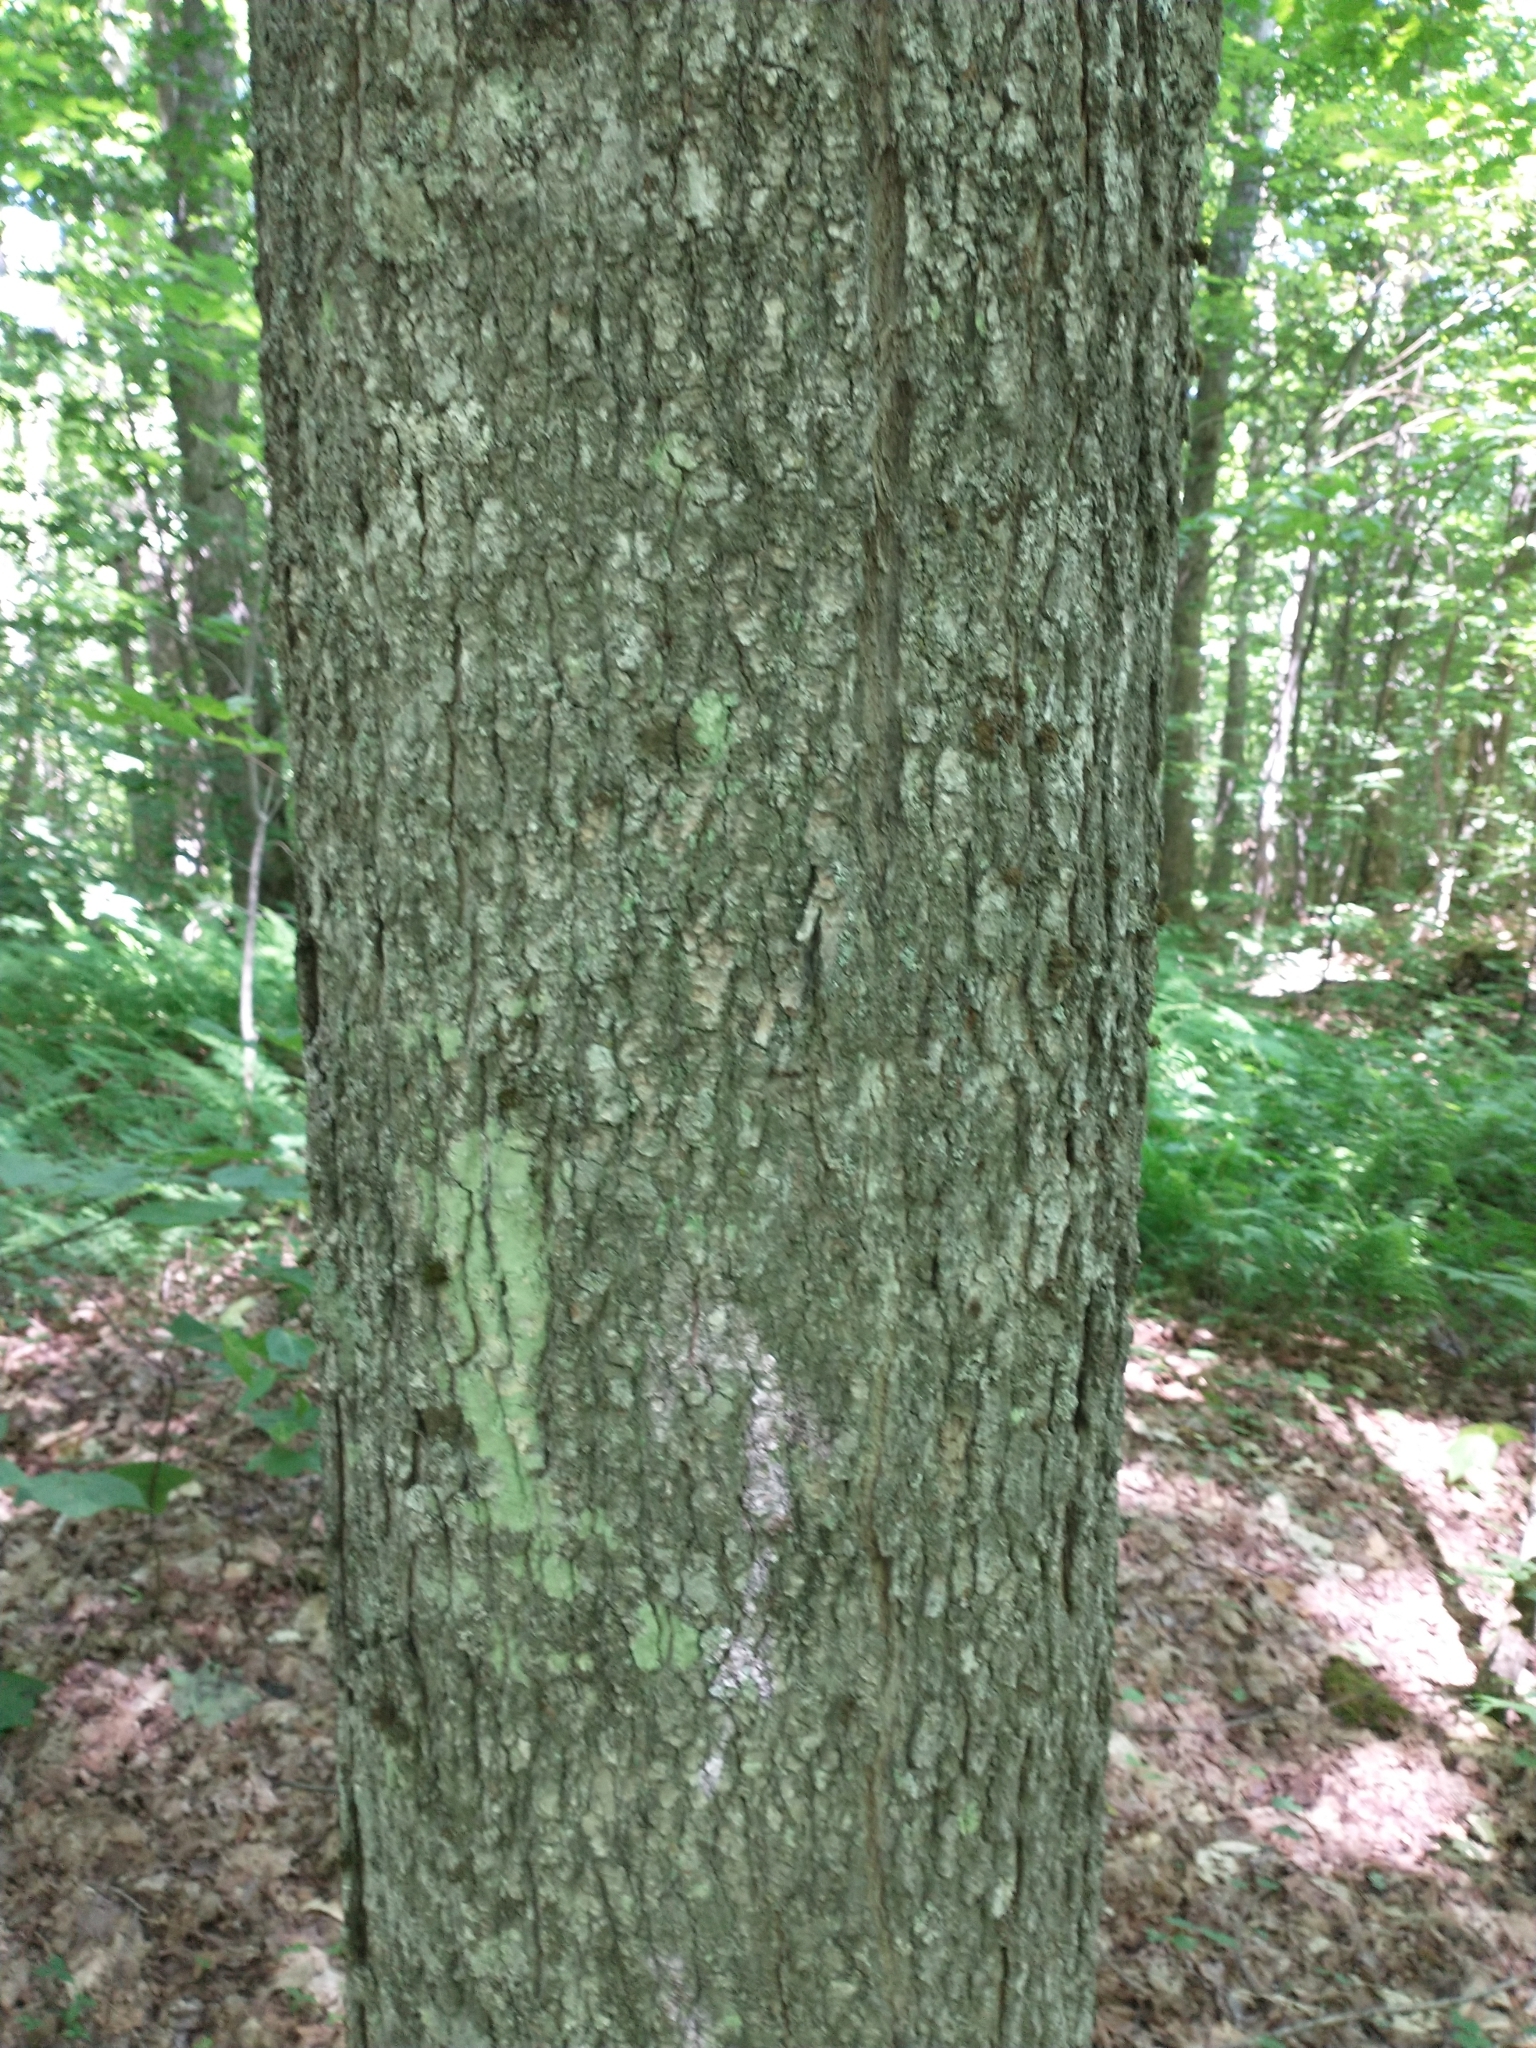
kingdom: Plantae
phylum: Tracheophyta
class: Magnoliopsida
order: Sapindales
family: Sapindaceae
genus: Acer
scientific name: Acer saccharum
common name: Sugar maple
